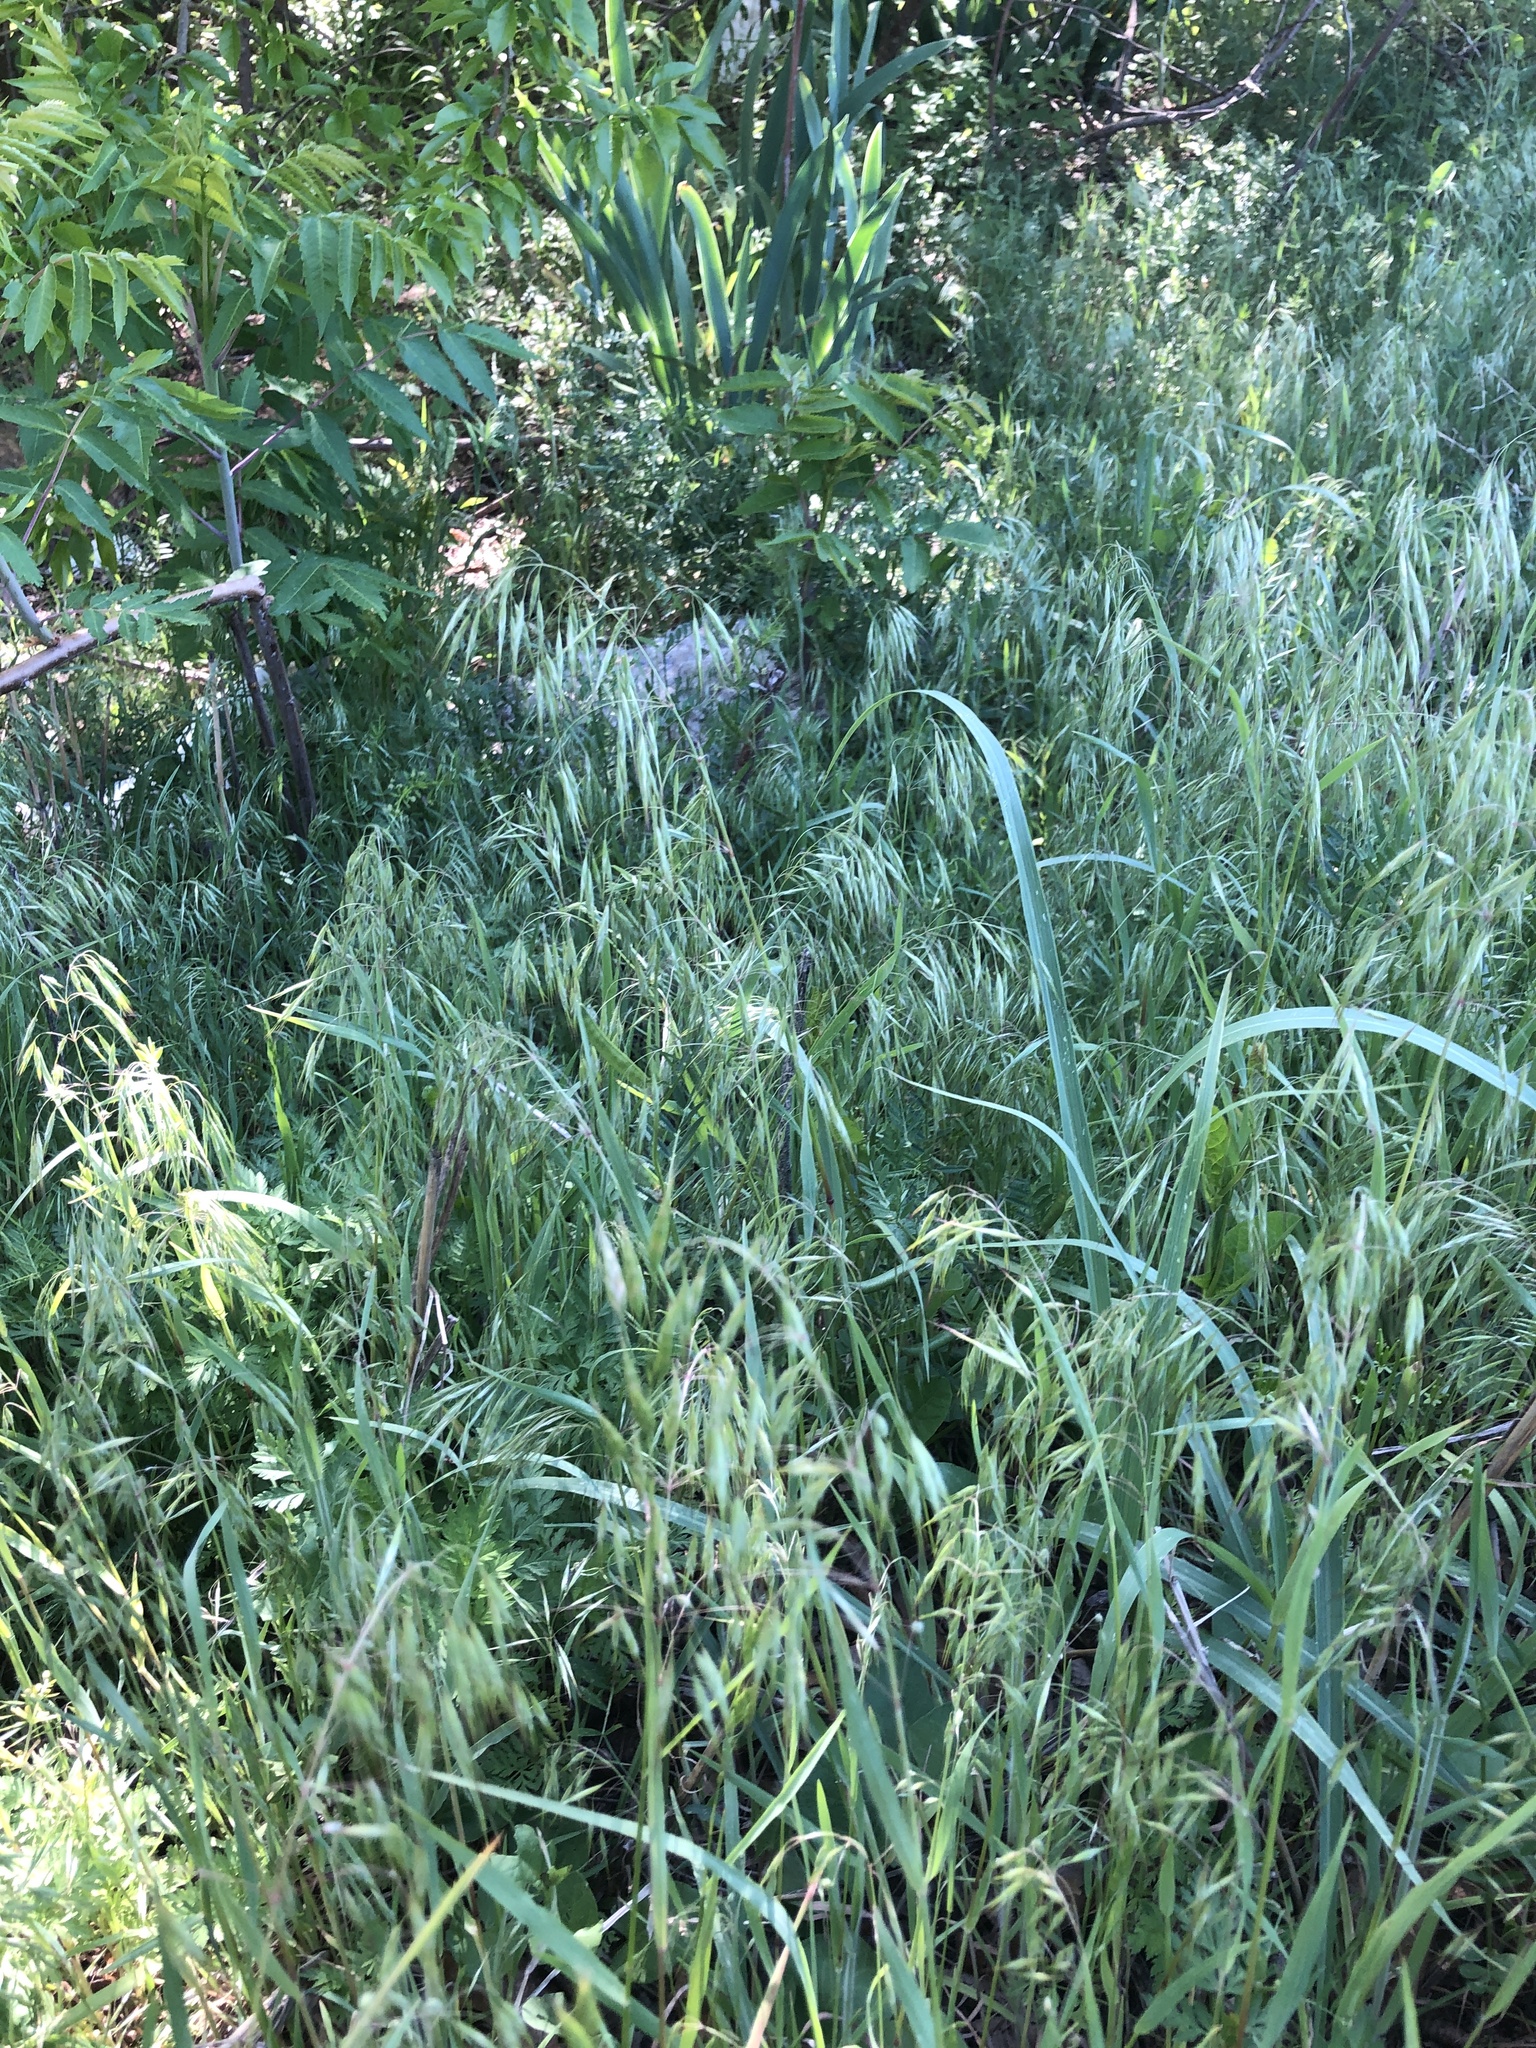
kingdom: Plantae
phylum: Tracheophyta
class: Liliopsida
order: Poales
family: Poaceae
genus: Bromus
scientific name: Bromus tectorum
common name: Cheatgrass
